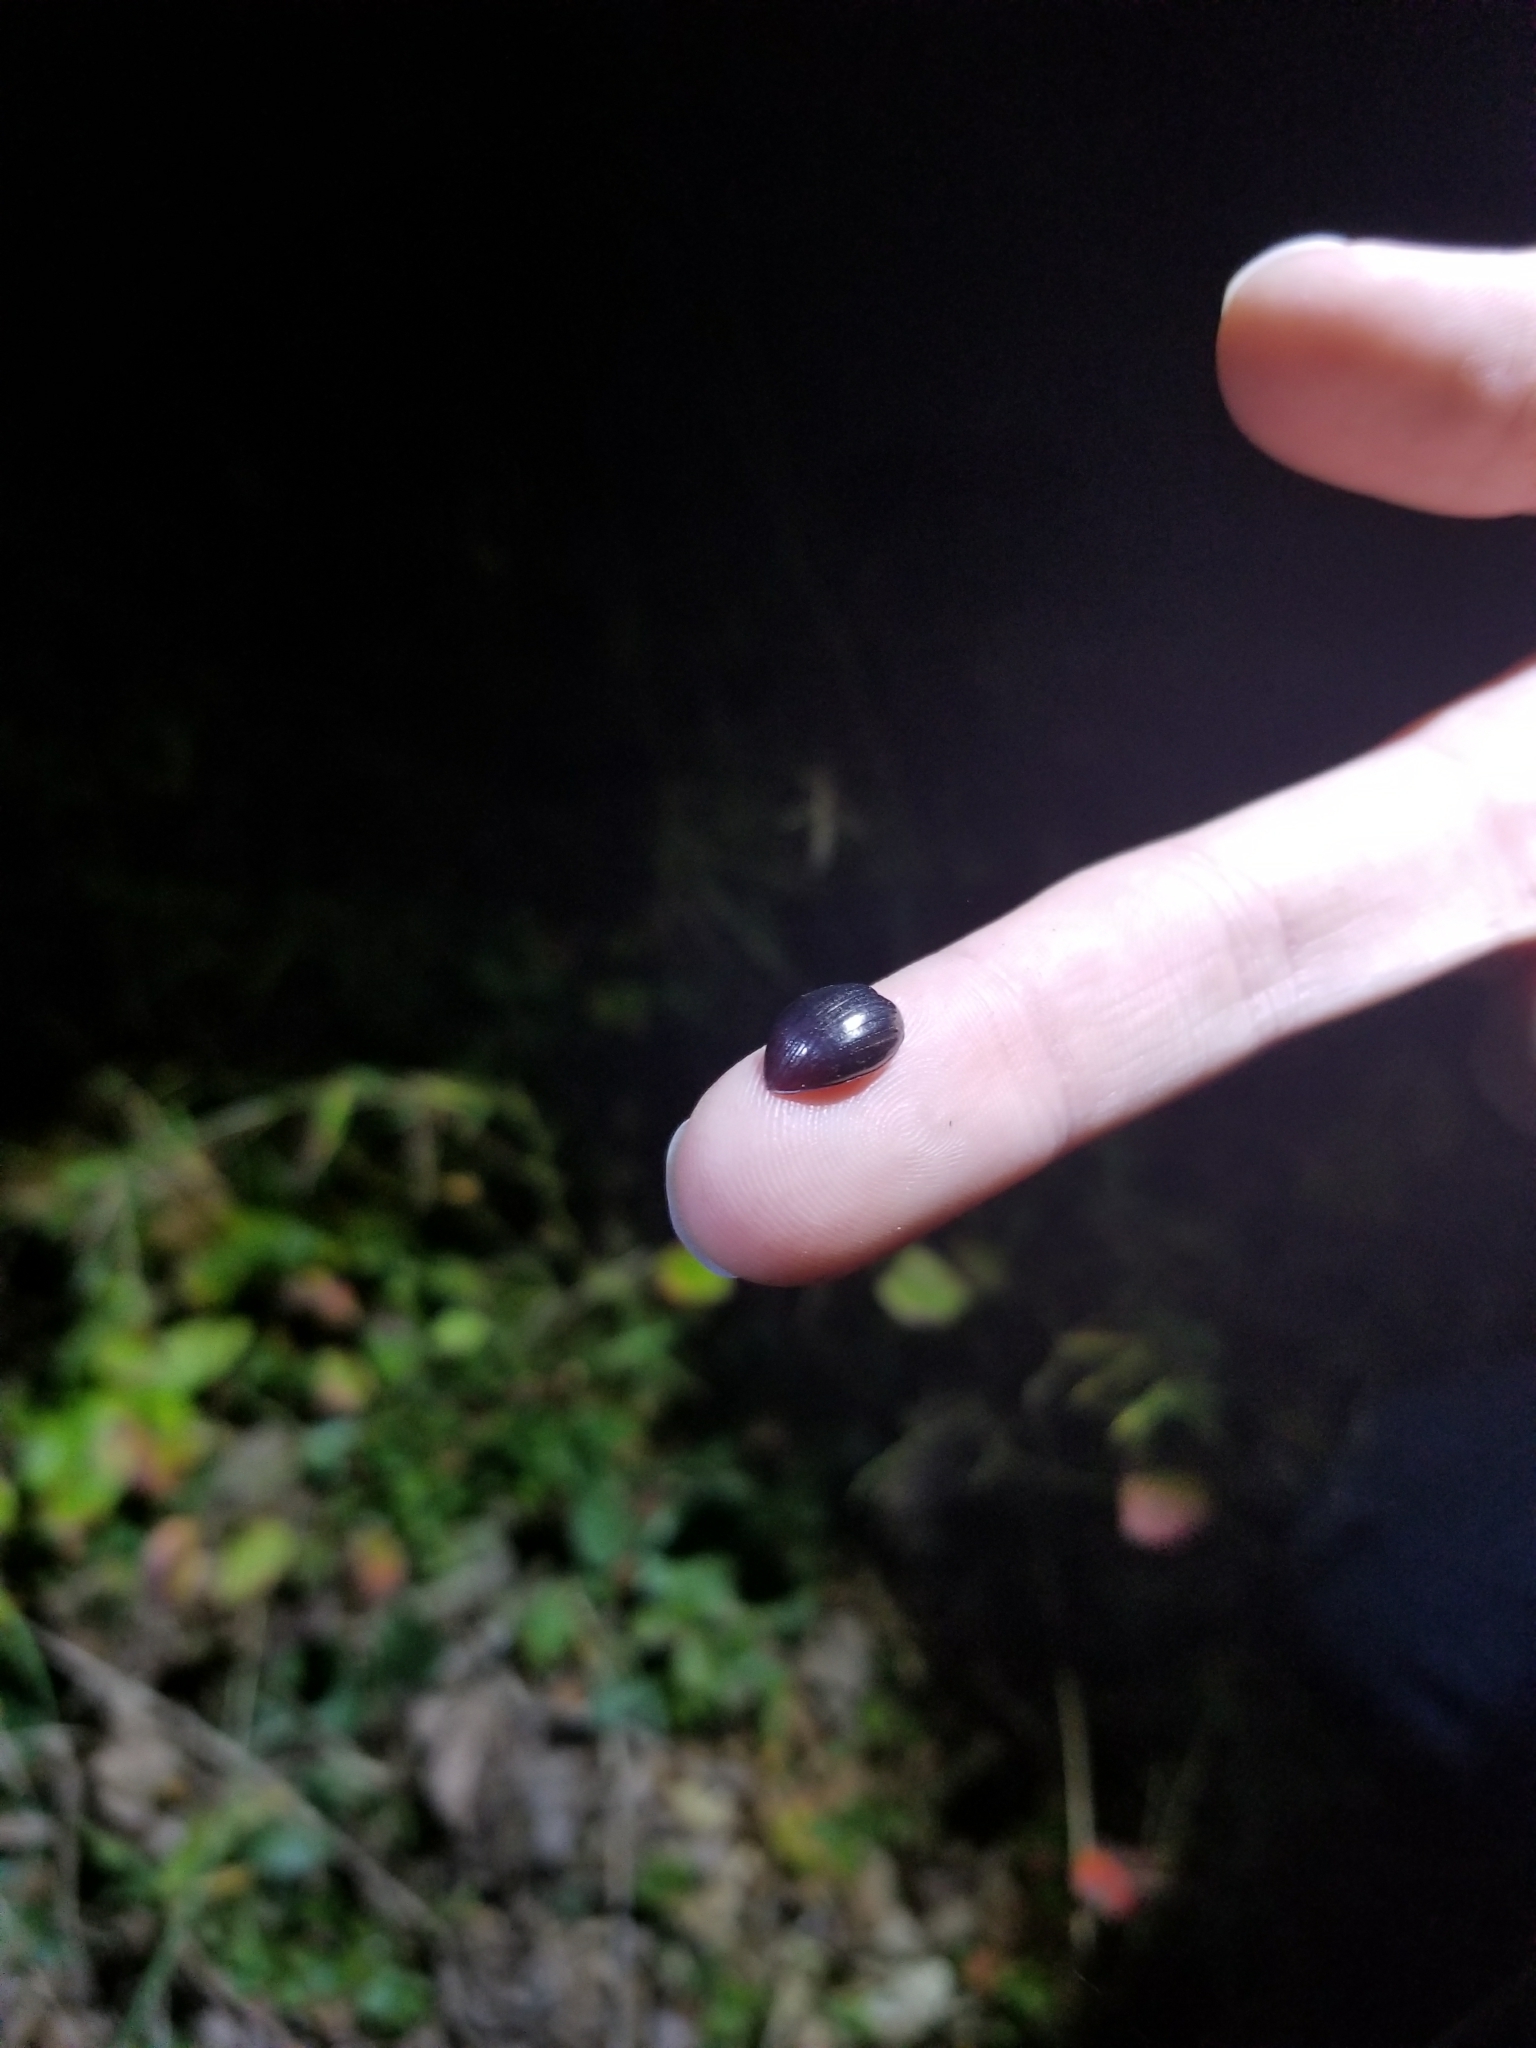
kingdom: Animalia
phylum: Arthropoda
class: Insecta
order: Coleoptera
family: Tenebrionidae
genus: Meracantha
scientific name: Meracantha contracta
